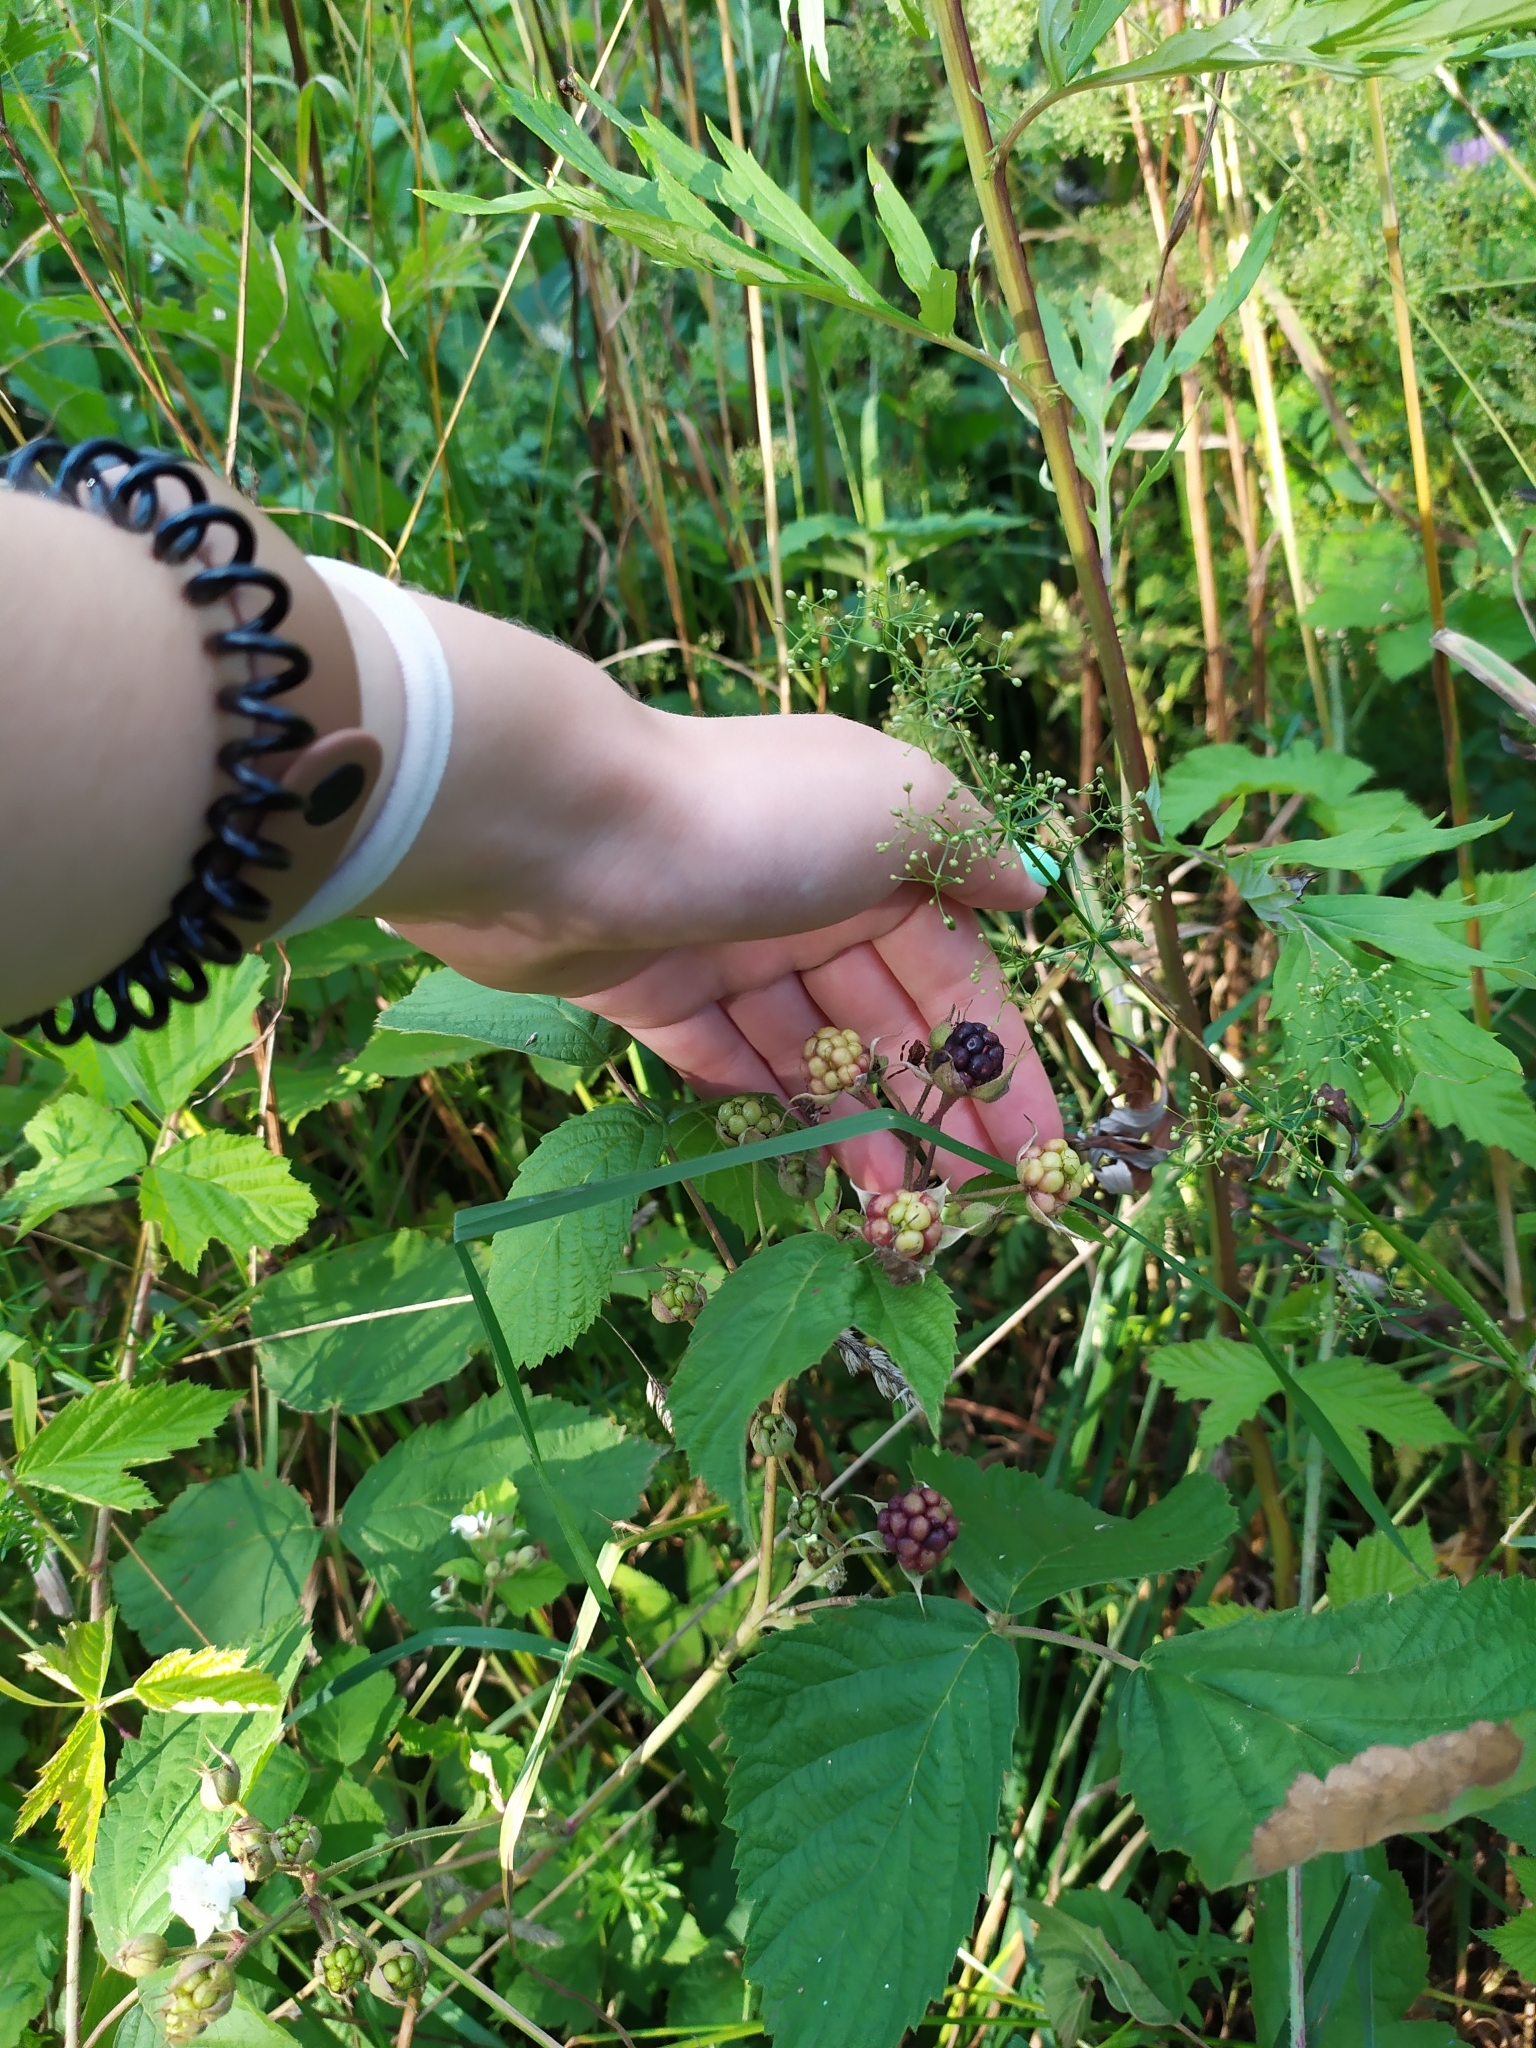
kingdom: Plantae
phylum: Tracheophyta
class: Magnoliopsida
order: Rosales
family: Rosaceae
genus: Rubus
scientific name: Rubus caesius
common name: Dewberry
